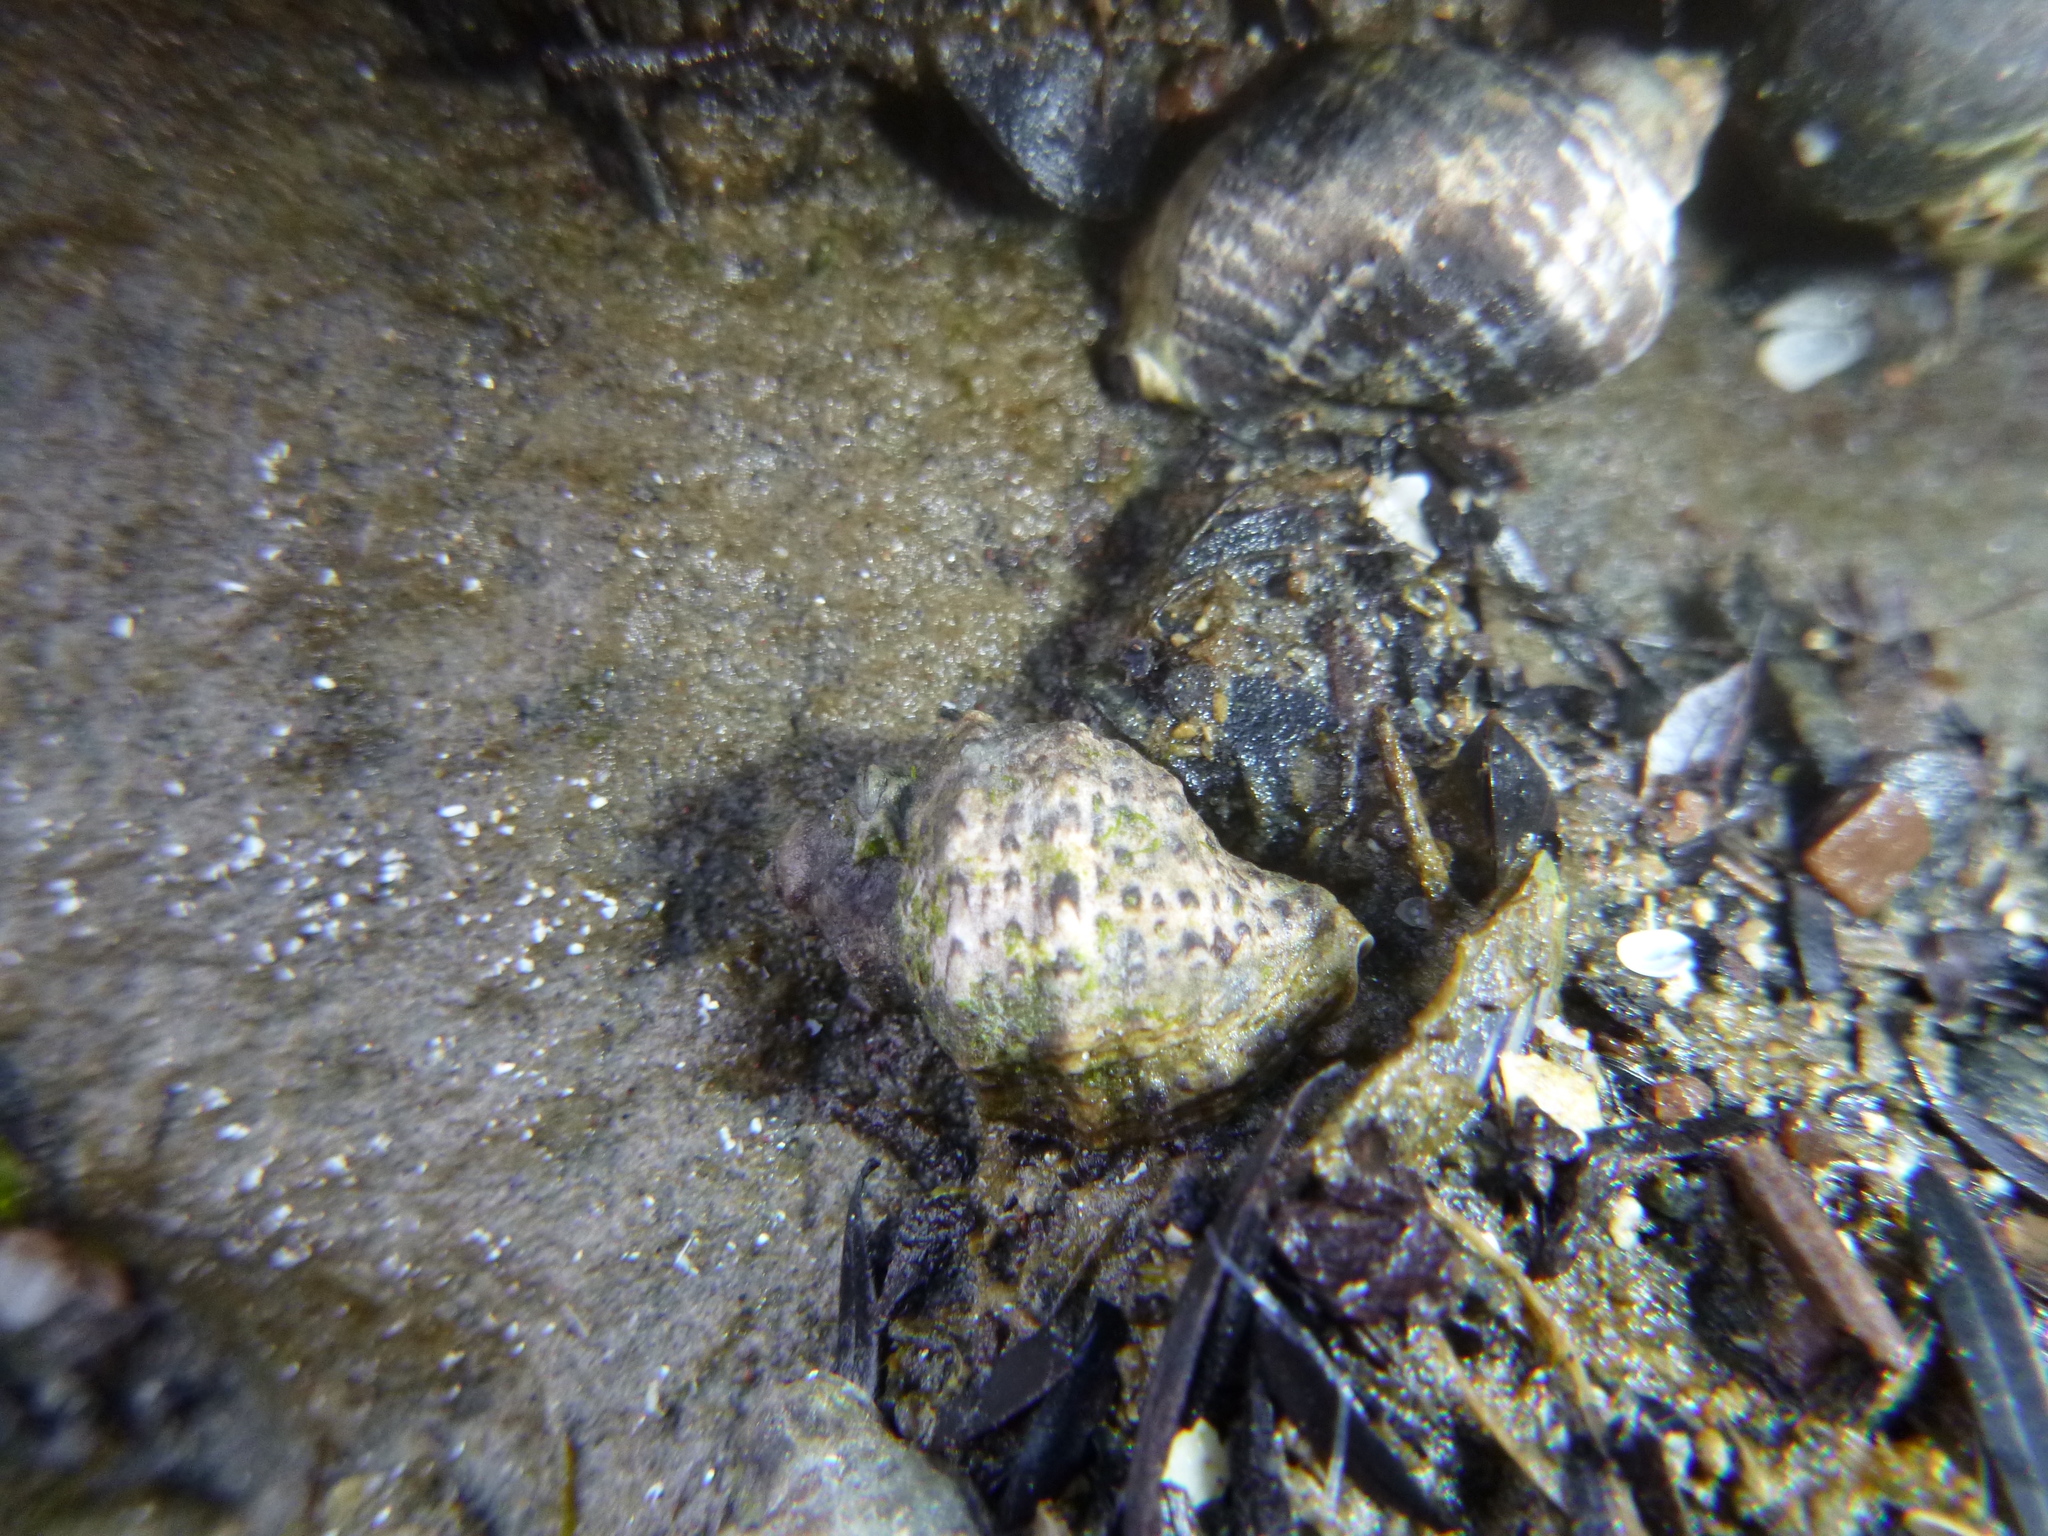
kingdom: Animalia
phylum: Mollusca
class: Gastropoda
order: Neogastropoda
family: Muricidae
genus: Haustrum
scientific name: Haustrum scobina
